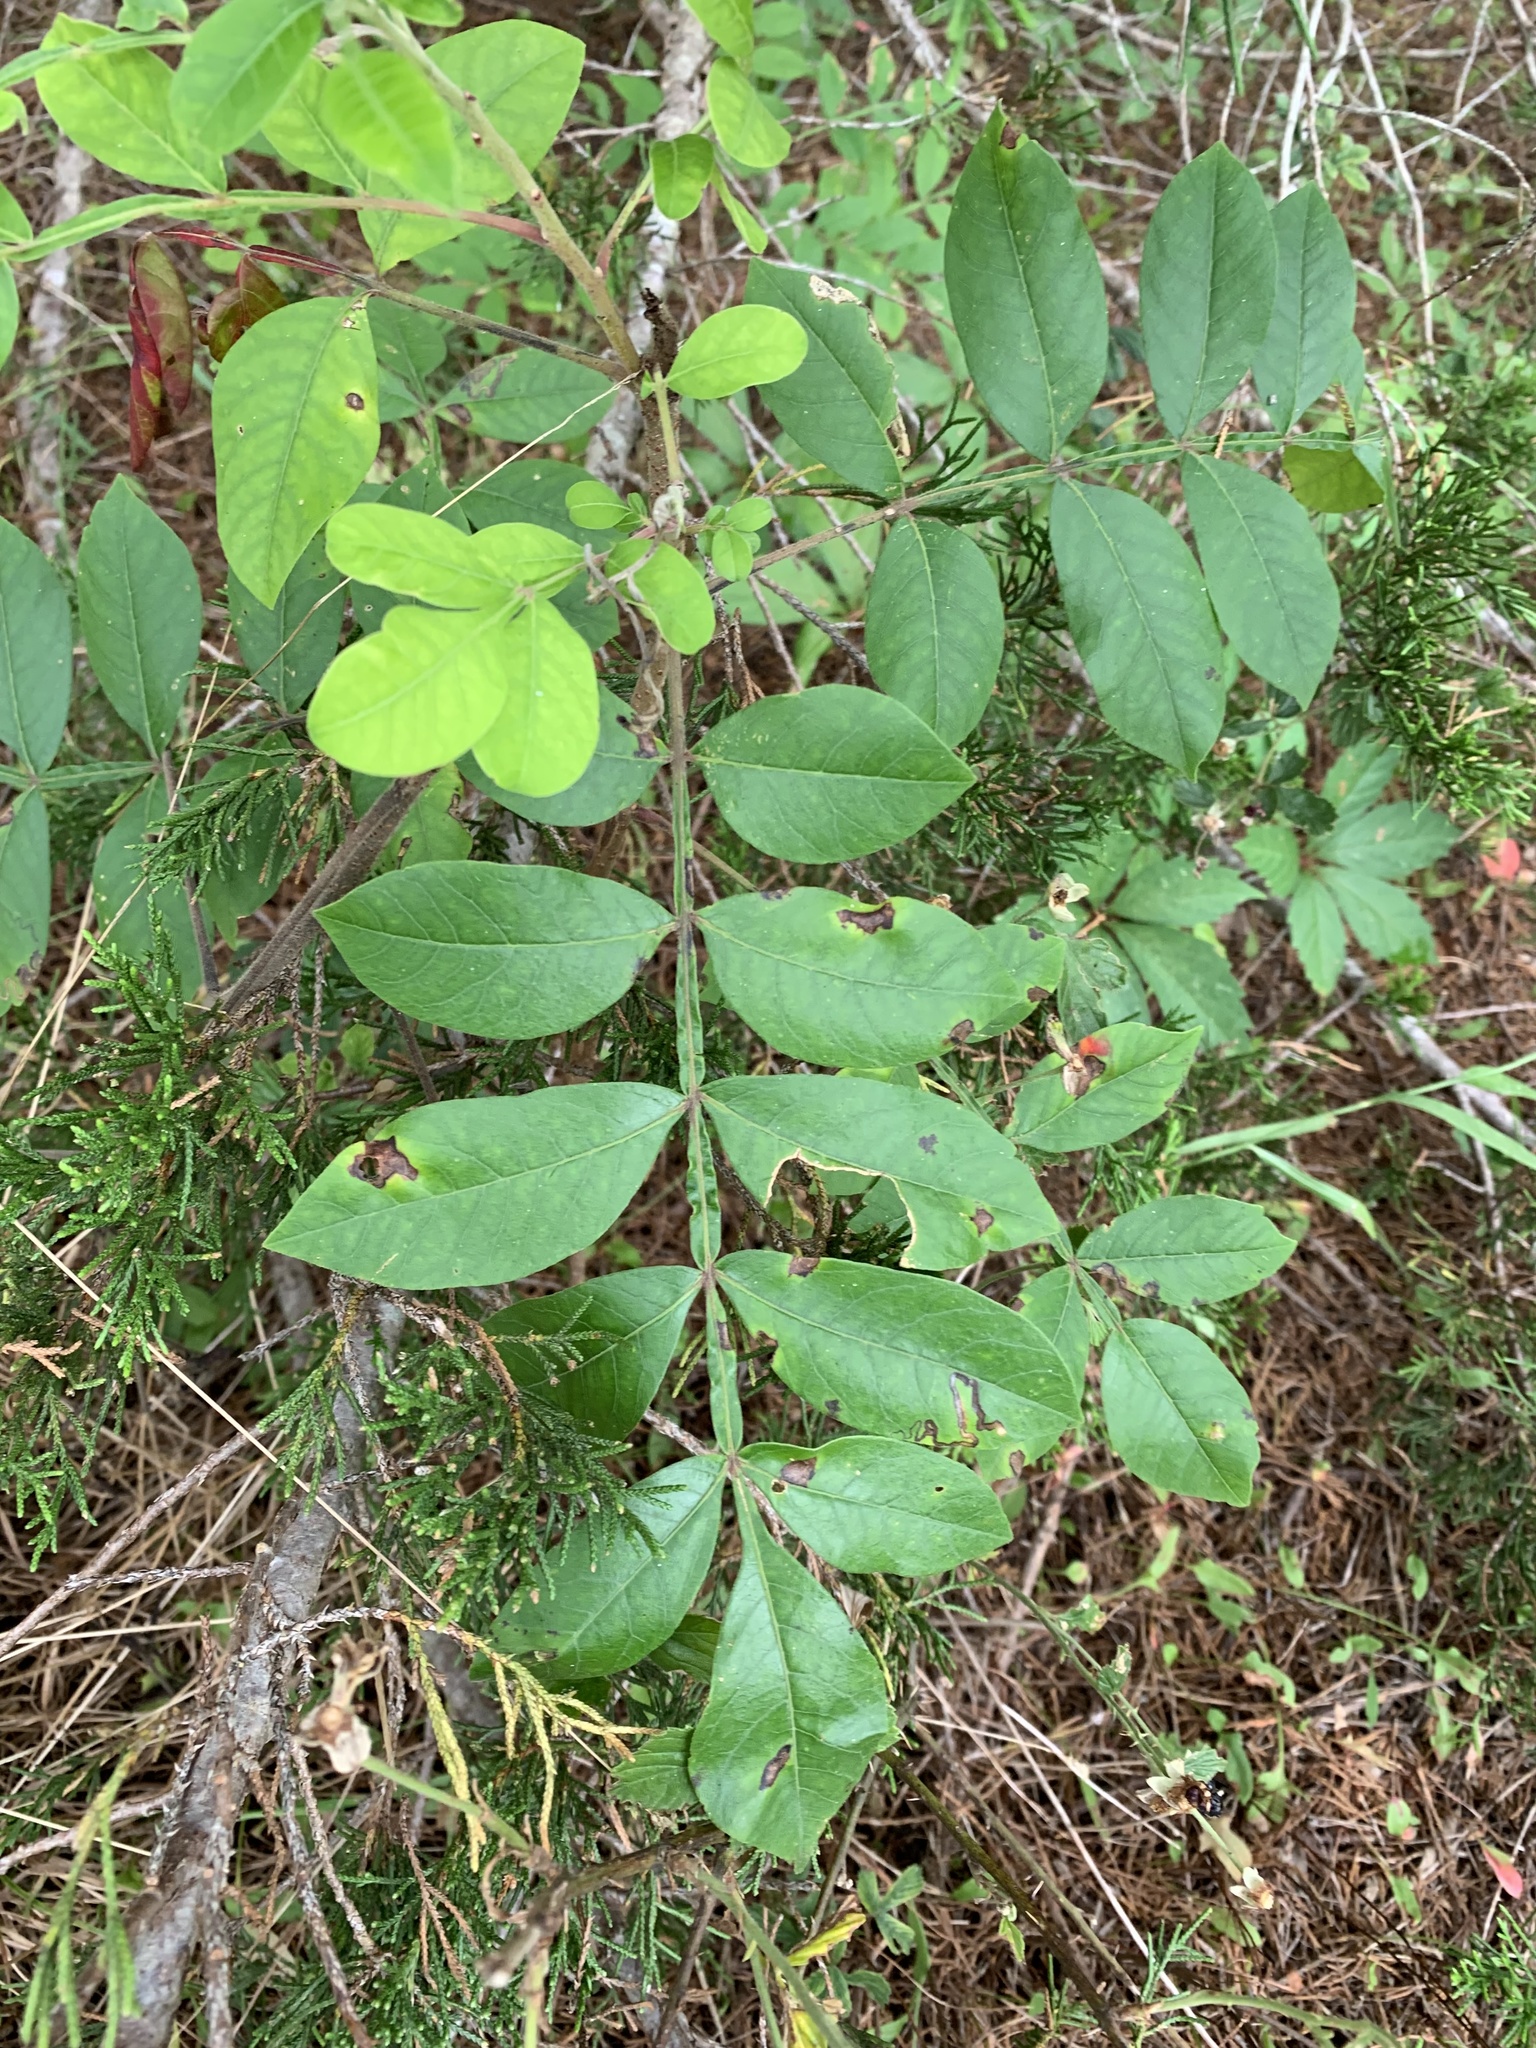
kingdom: Plantae
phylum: Tracheophyta
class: Magnoliopsida
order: Sapindales
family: Anacardiaceae
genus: Rhus
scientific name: Rhus copallina
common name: Shining sumac
